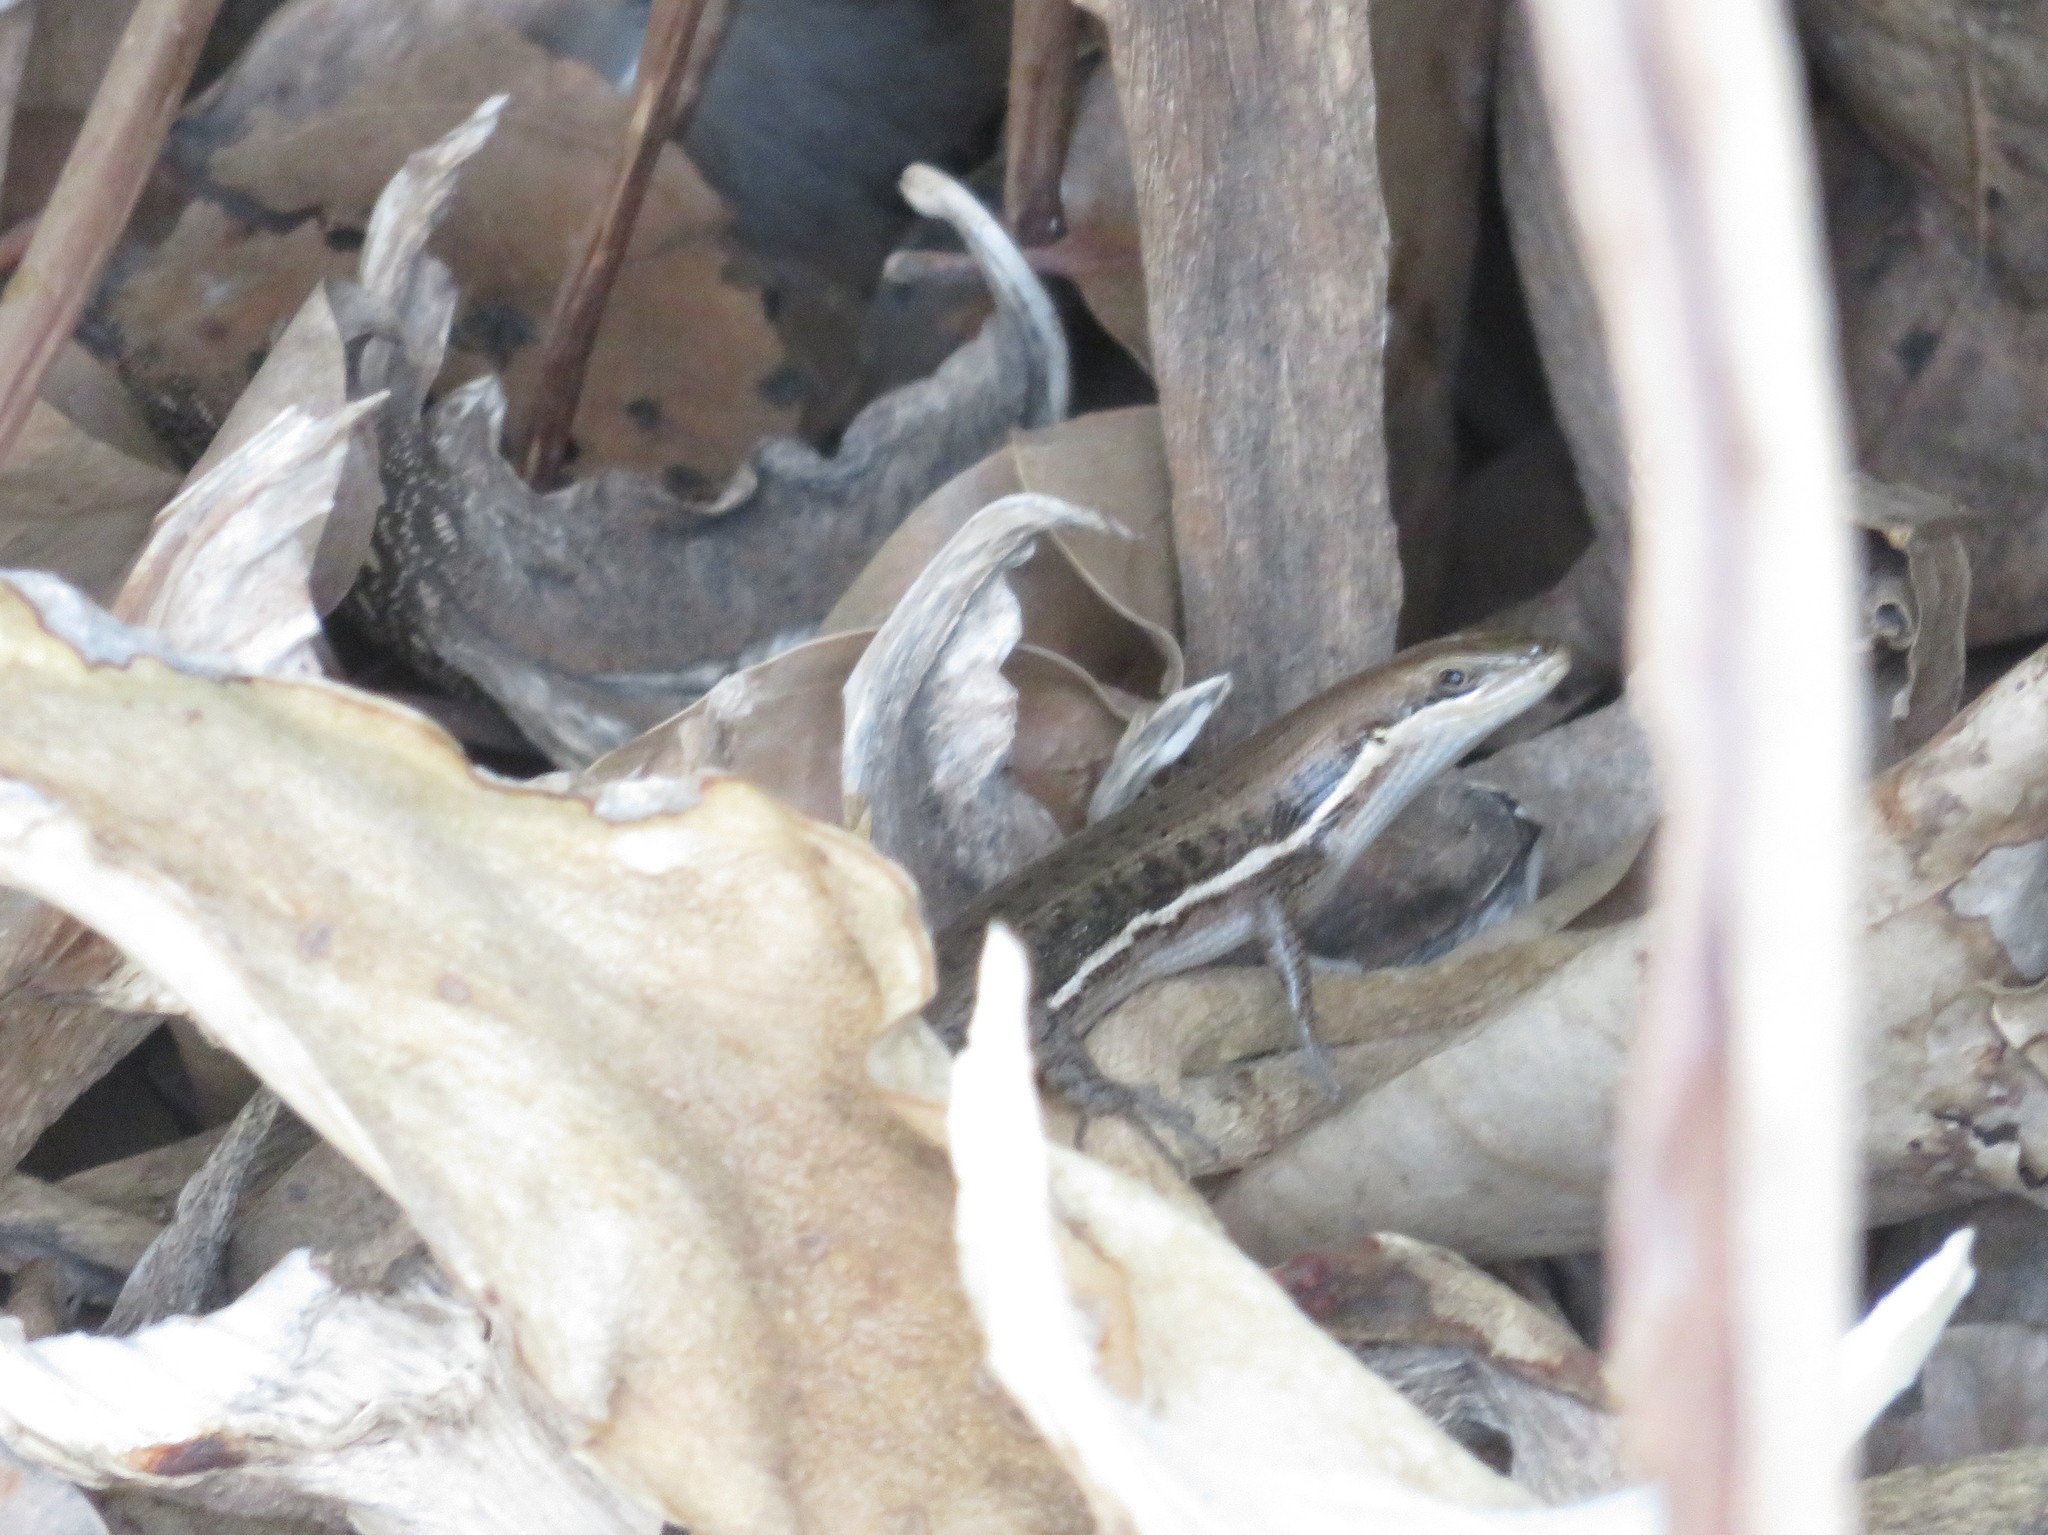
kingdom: Animalia
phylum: Chordata
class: Squamata
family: Scincidae
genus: Trachylepis
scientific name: Trachylepis damarana
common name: Damara skink
